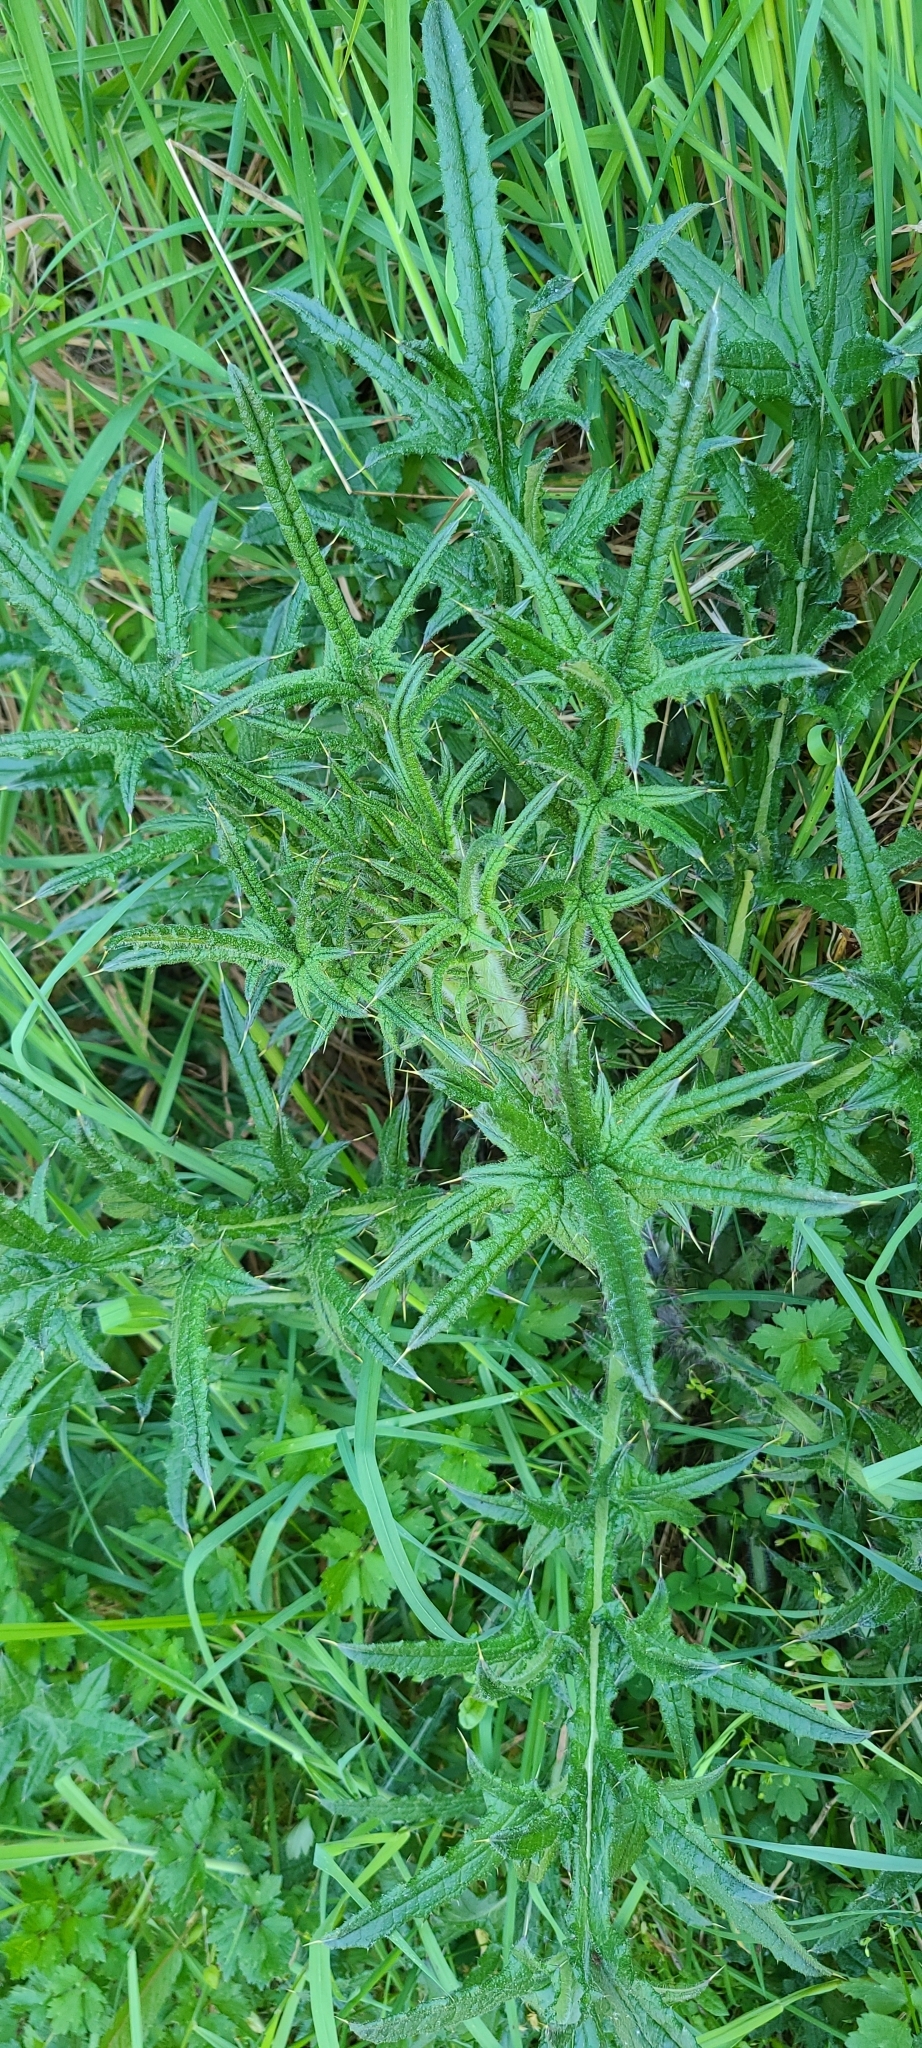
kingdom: Plantae
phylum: Tracheophyta
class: Magnoliopsida
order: Asterales
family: Asteraceae
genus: Cirsium
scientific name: Cirsium vulgare
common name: Bull thistle
